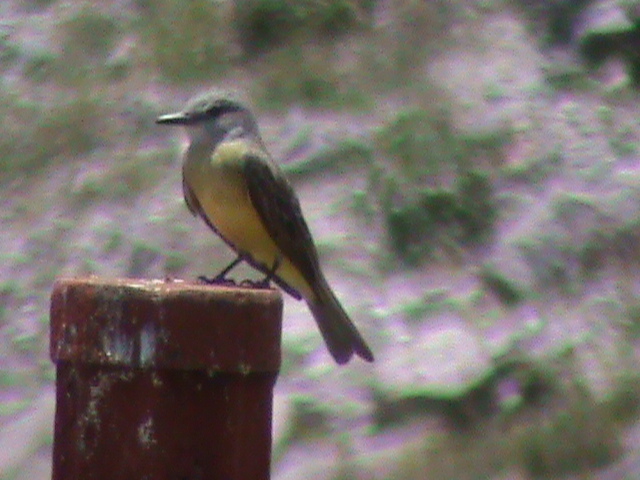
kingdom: Animalia
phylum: Chordata
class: Aves
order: Passeriformes
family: Tyrannidae
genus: Tyrannus
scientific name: Tyrannus melancholicus
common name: Tropical kingbird
